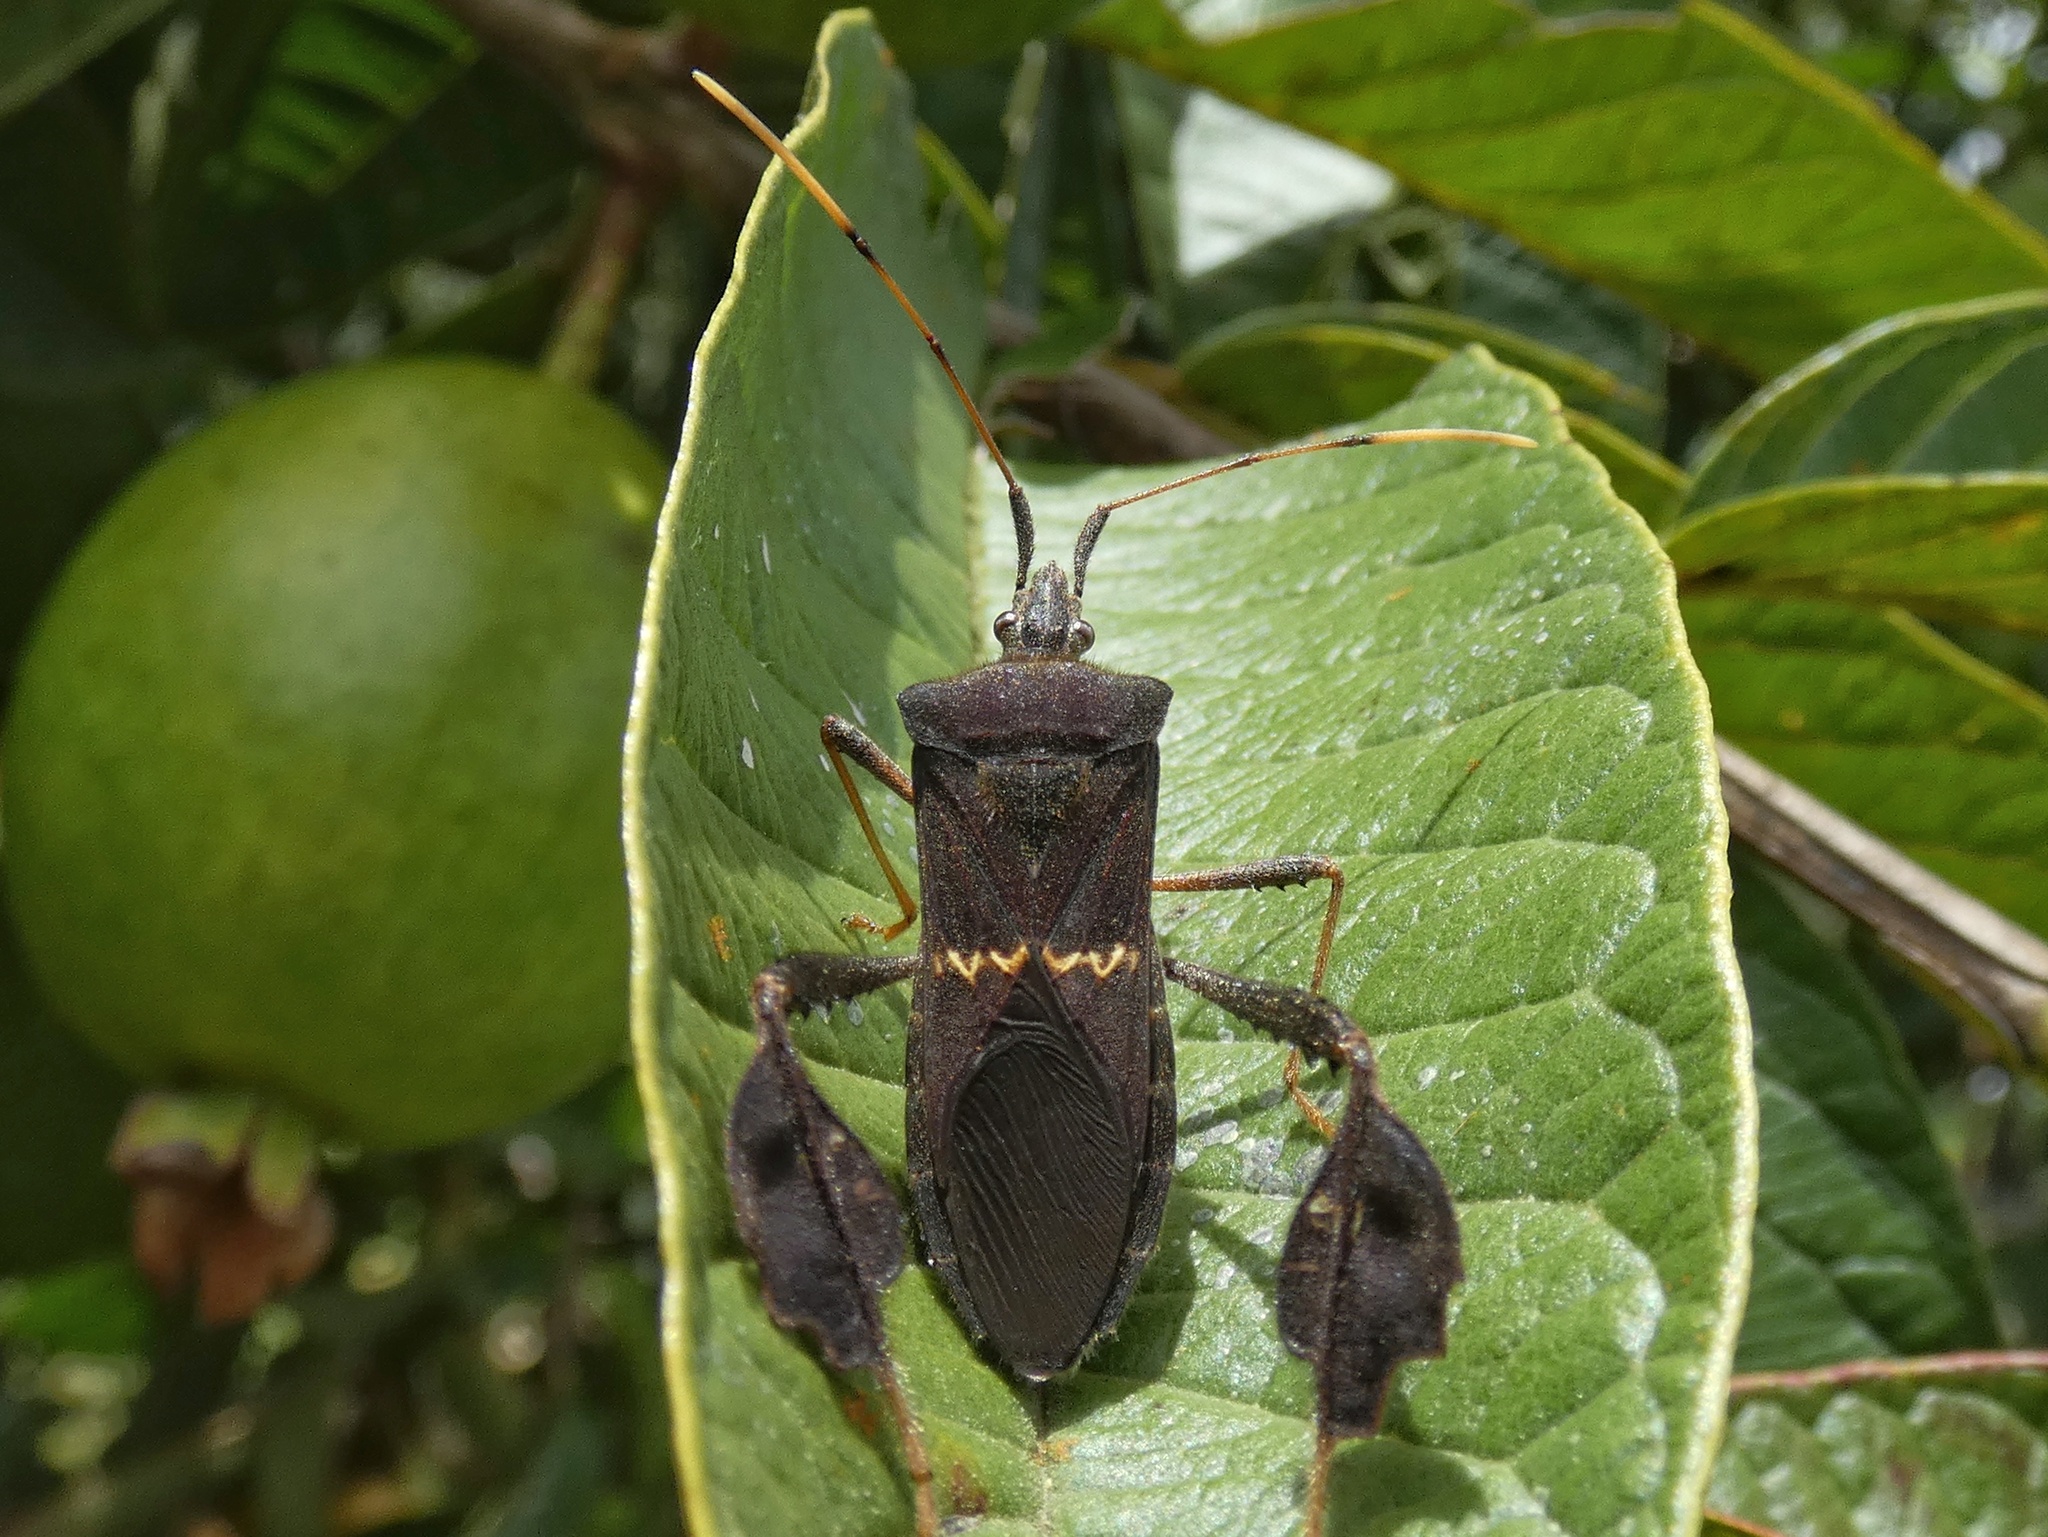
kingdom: Animalia
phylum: Arthropoda
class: Insecta
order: Hemiptera
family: Coreidae
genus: Leptoglossus
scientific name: Leptoglossus concolor
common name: Leaf-footed bug
